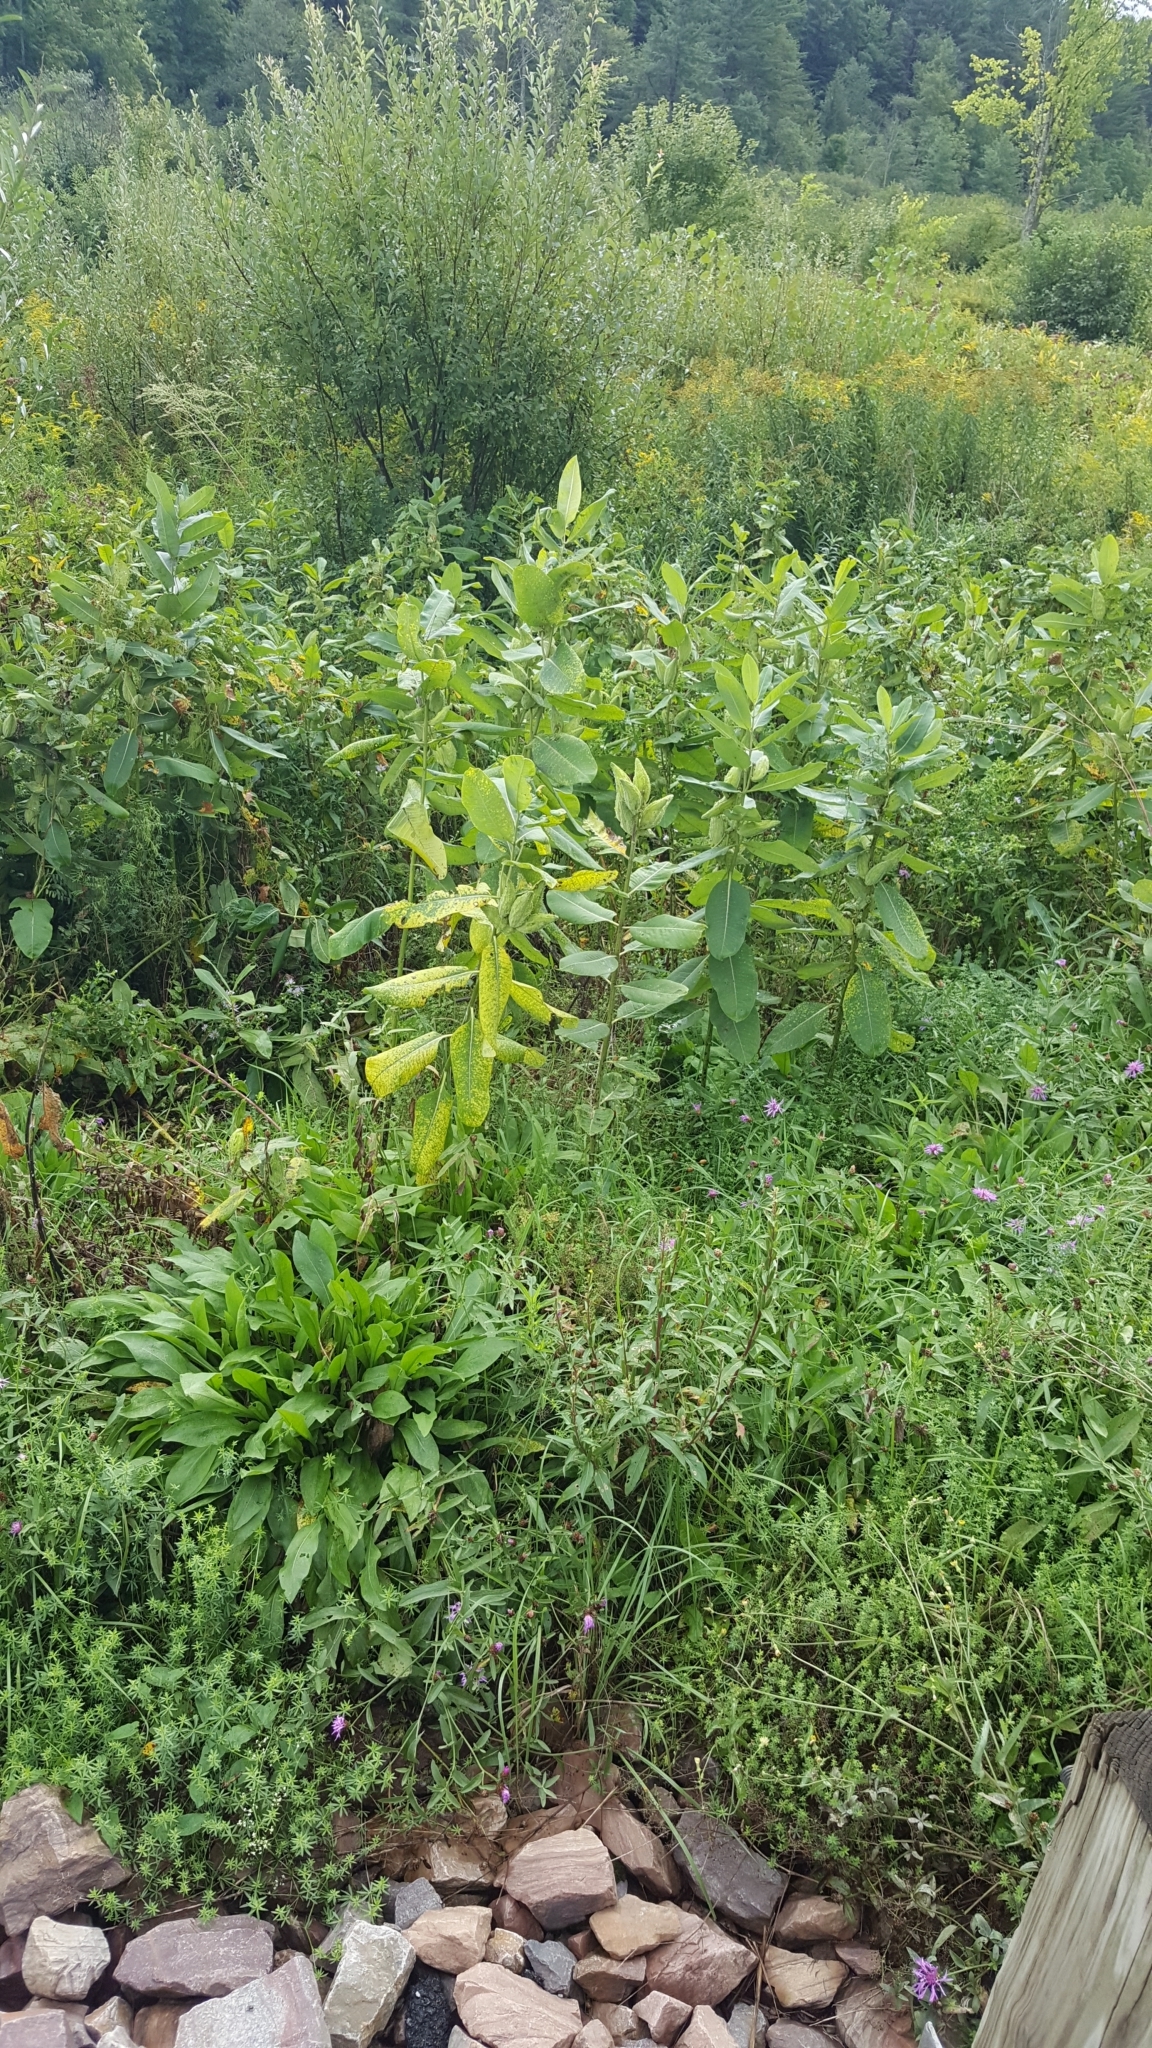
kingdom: Plantae
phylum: Tracheophyta
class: Magnoliopsida
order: Gentianales
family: Apocynaceae
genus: Asclepias
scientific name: Asclepias syriaca
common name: Common milkweed
